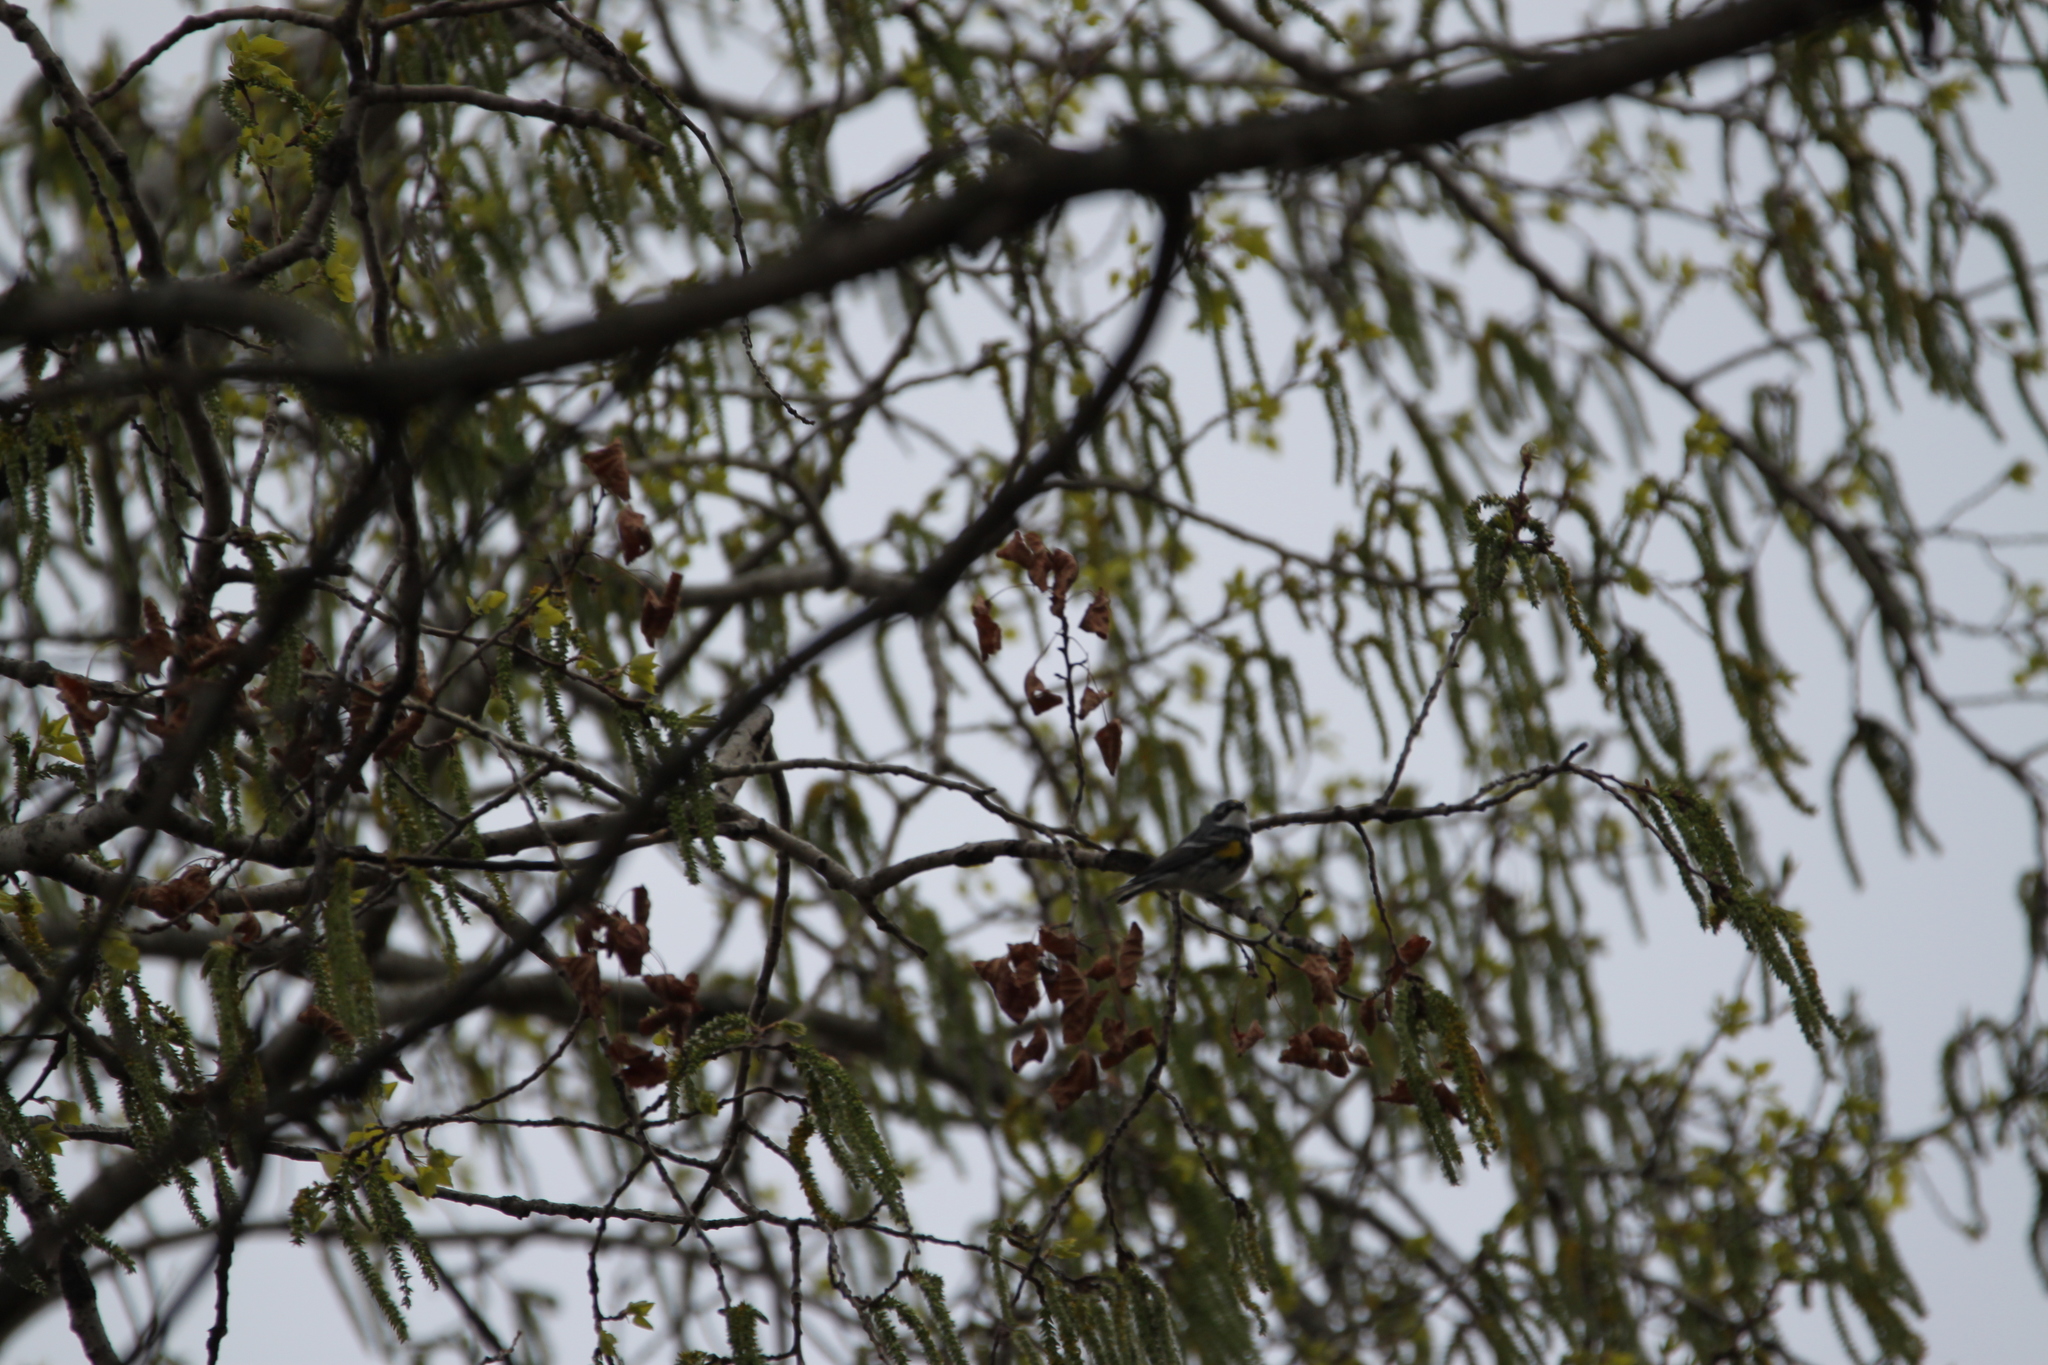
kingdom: Animalia
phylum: Chordata
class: Aves
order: Passeriformes
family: Parulidae
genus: Setophaga
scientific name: Setophaga coronata
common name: Myrtle warbler
